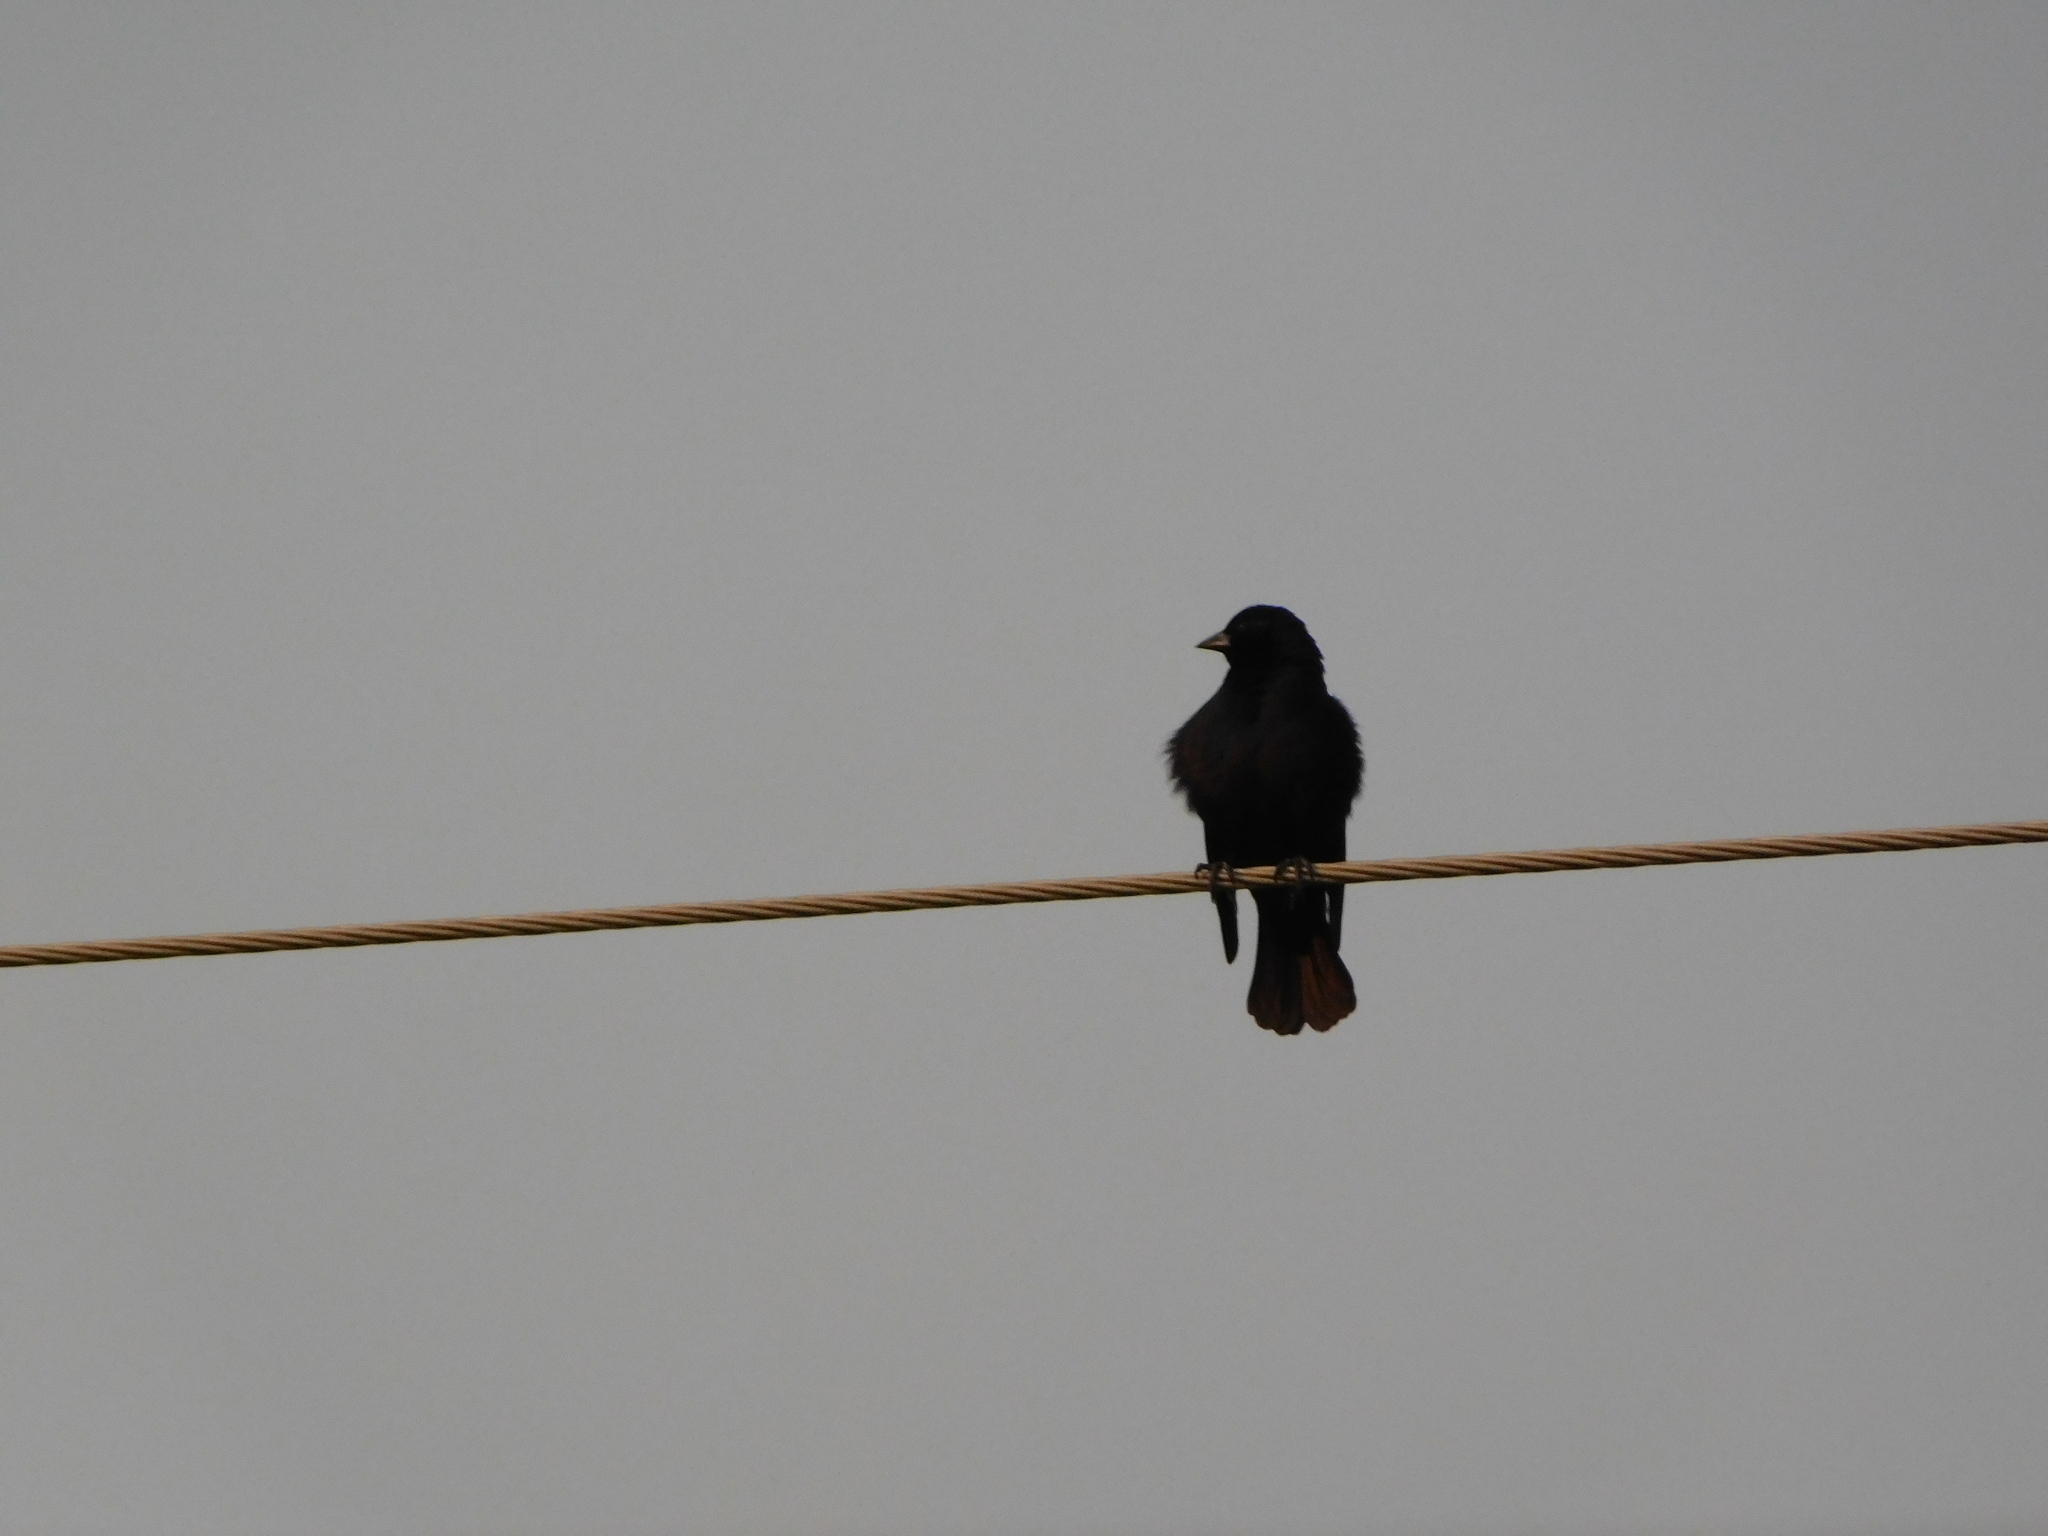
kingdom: Animalia
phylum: Chordata
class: Aves
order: Passeriformes
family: Icteridae
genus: Molothrus
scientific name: Molothrus rufoaxillaris
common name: Screaming cowbird
